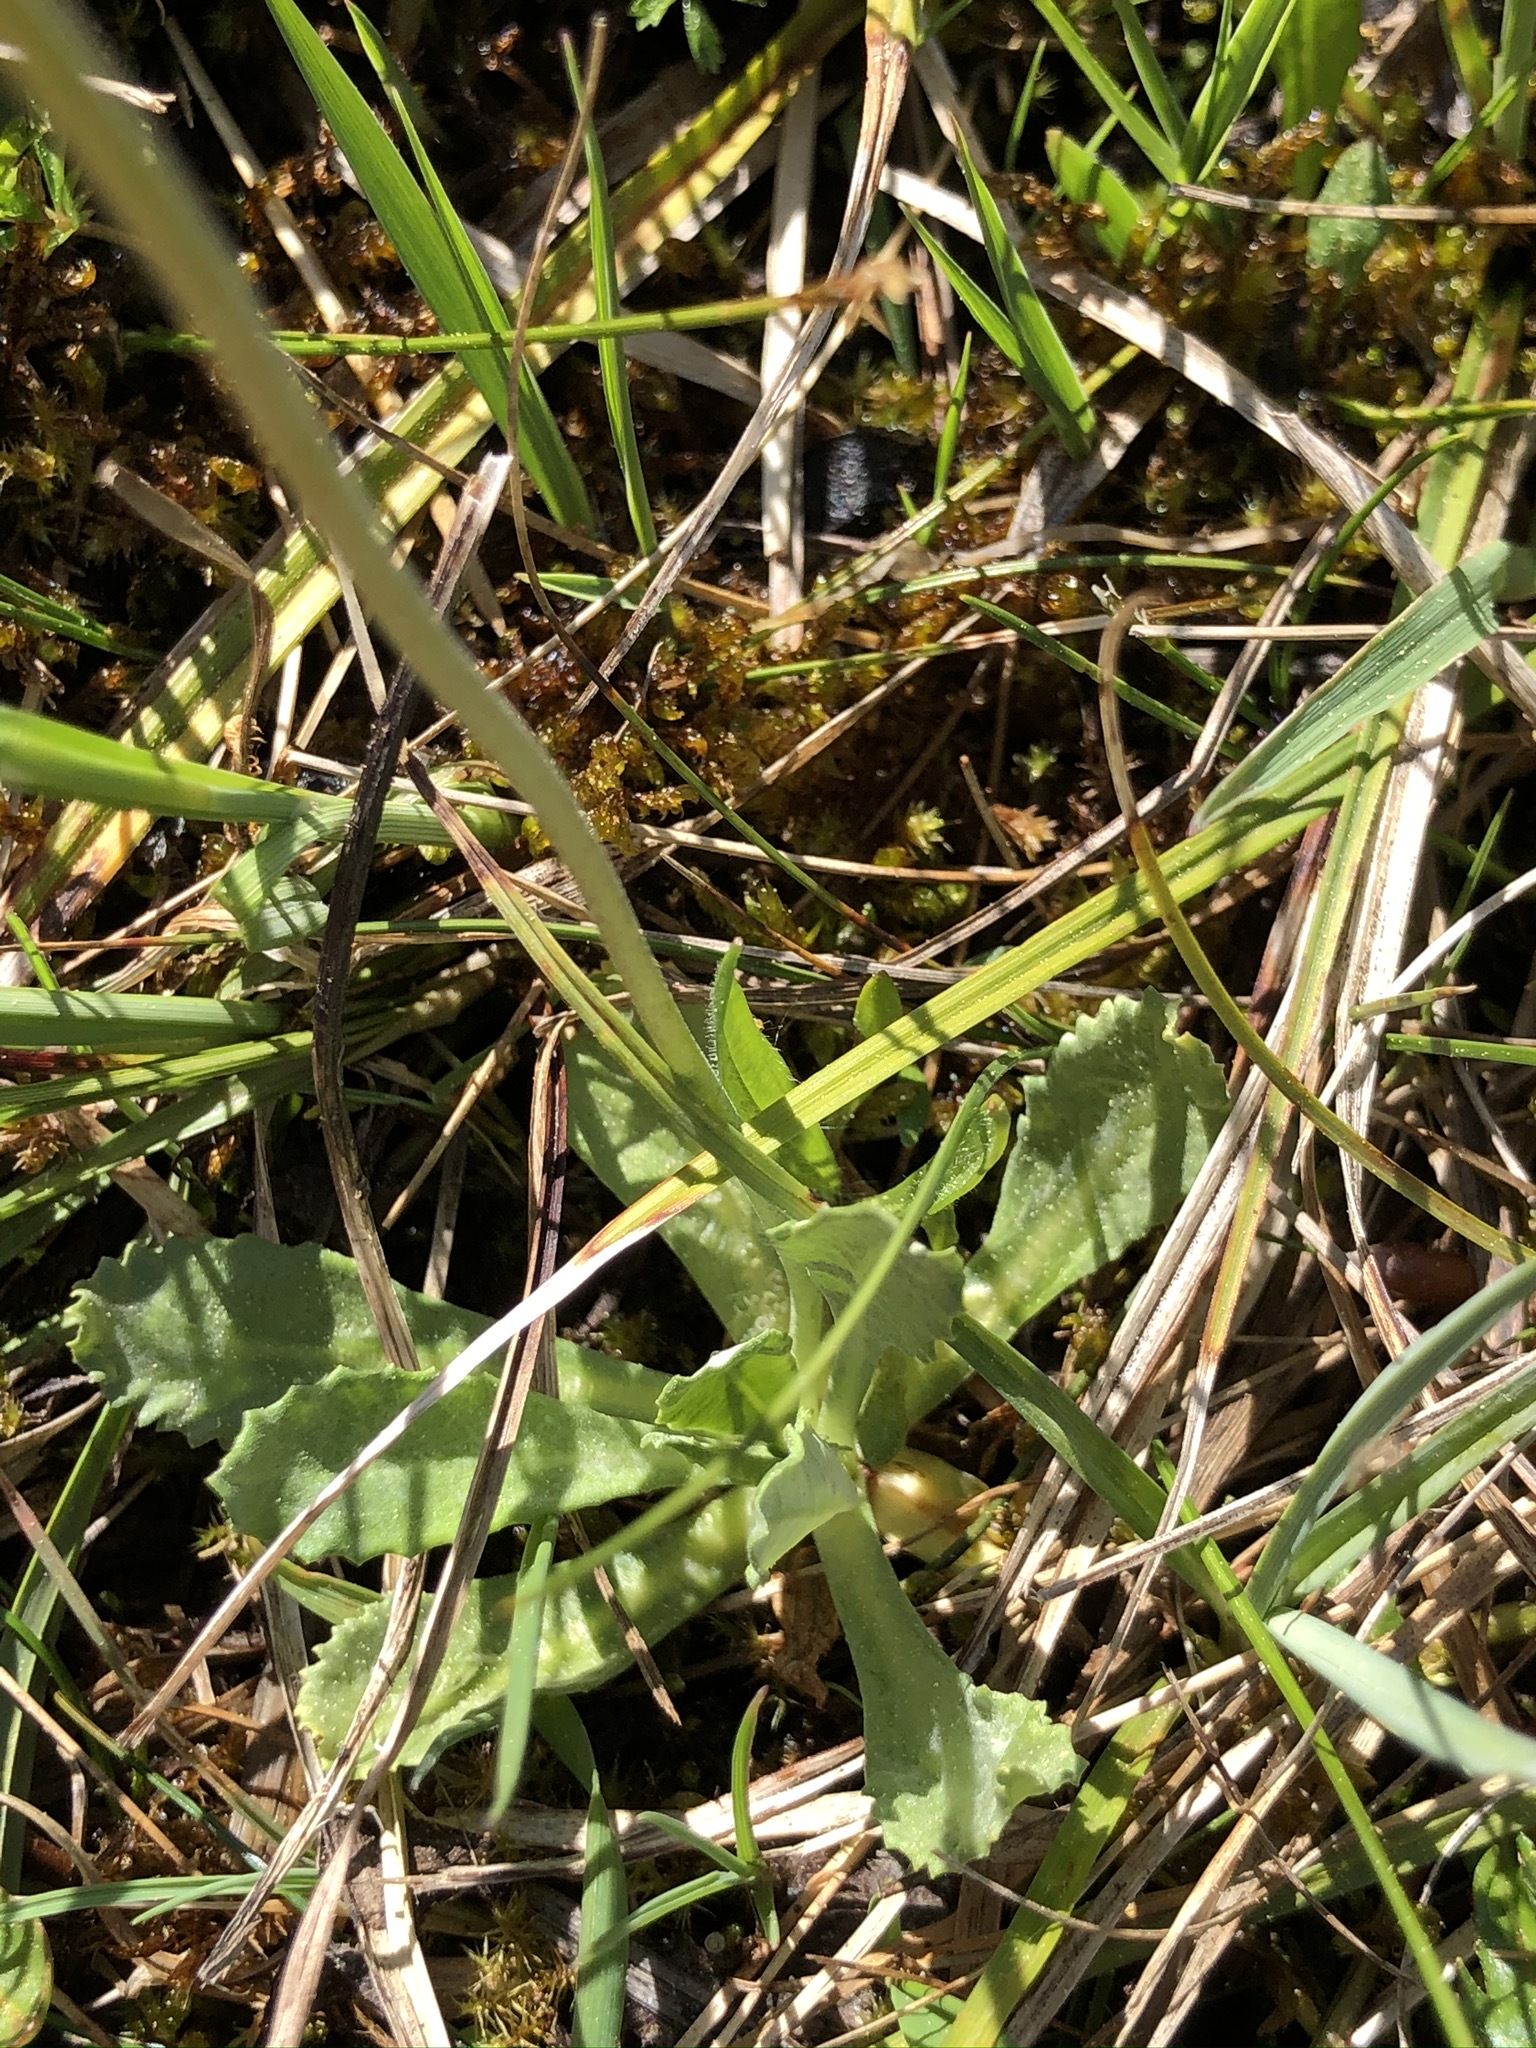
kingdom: Plantae
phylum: Tracheophyta
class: Magnoliopsida
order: Ericales
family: Primulaceae
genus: Primula
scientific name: Primula farinosa
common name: Bird's-eye primrose
